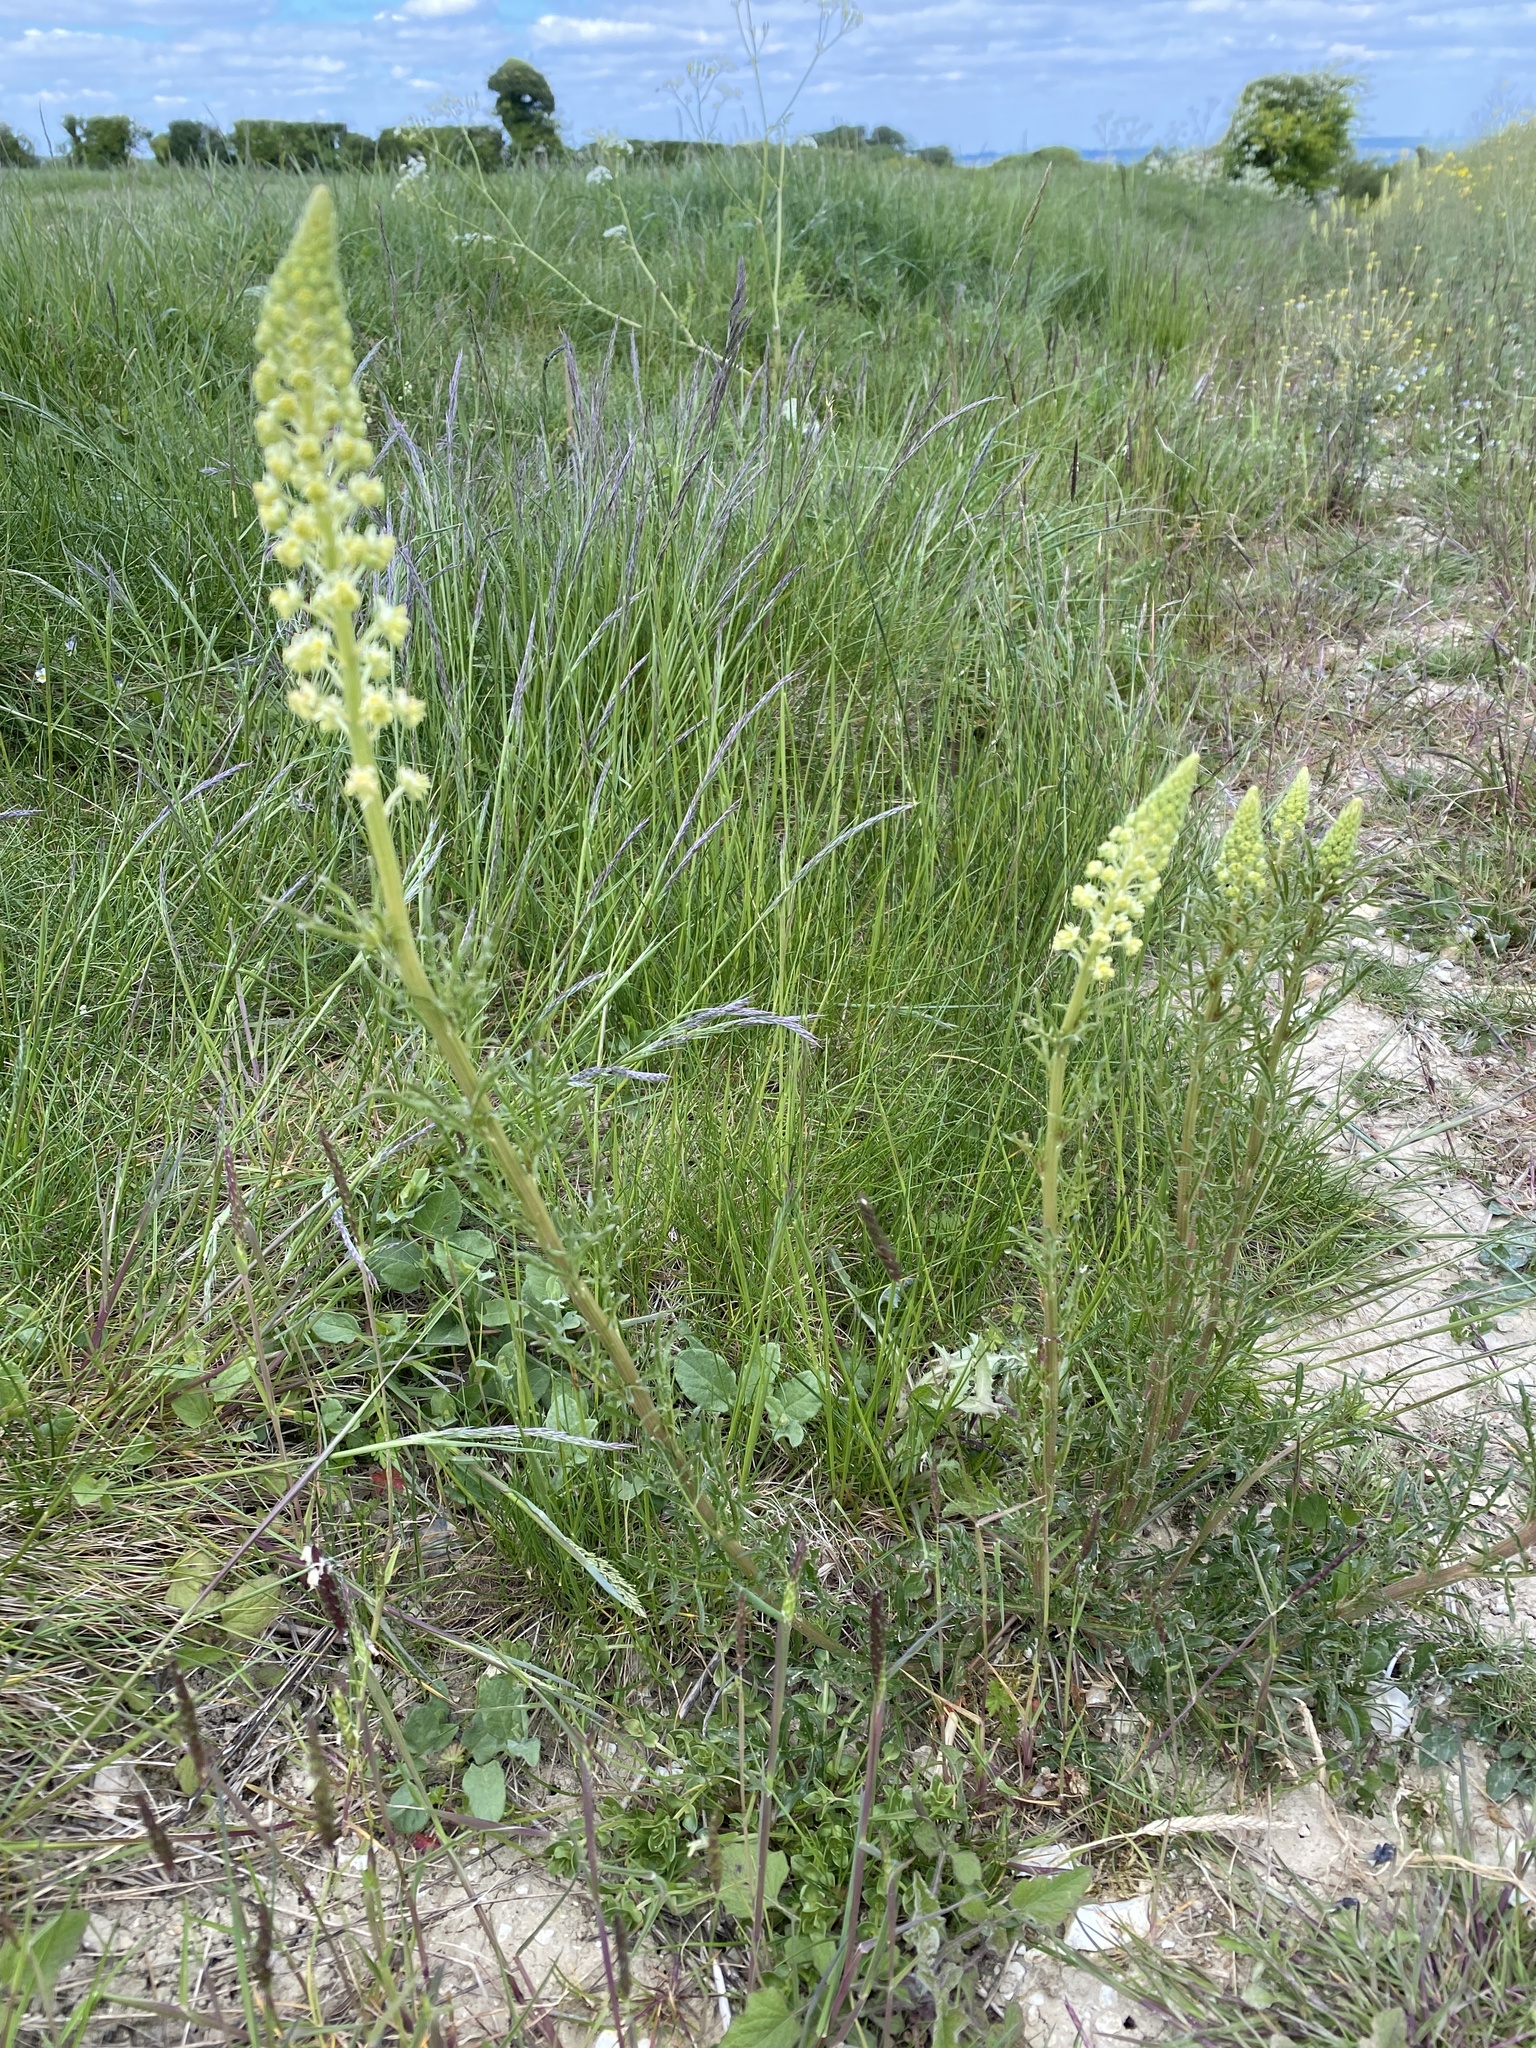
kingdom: Plantae
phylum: Tracheophyta
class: Magnoliopsida
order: Brassicales
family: Resedaceae
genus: Reseda
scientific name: Reseda lutea
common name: Wild mignonette
